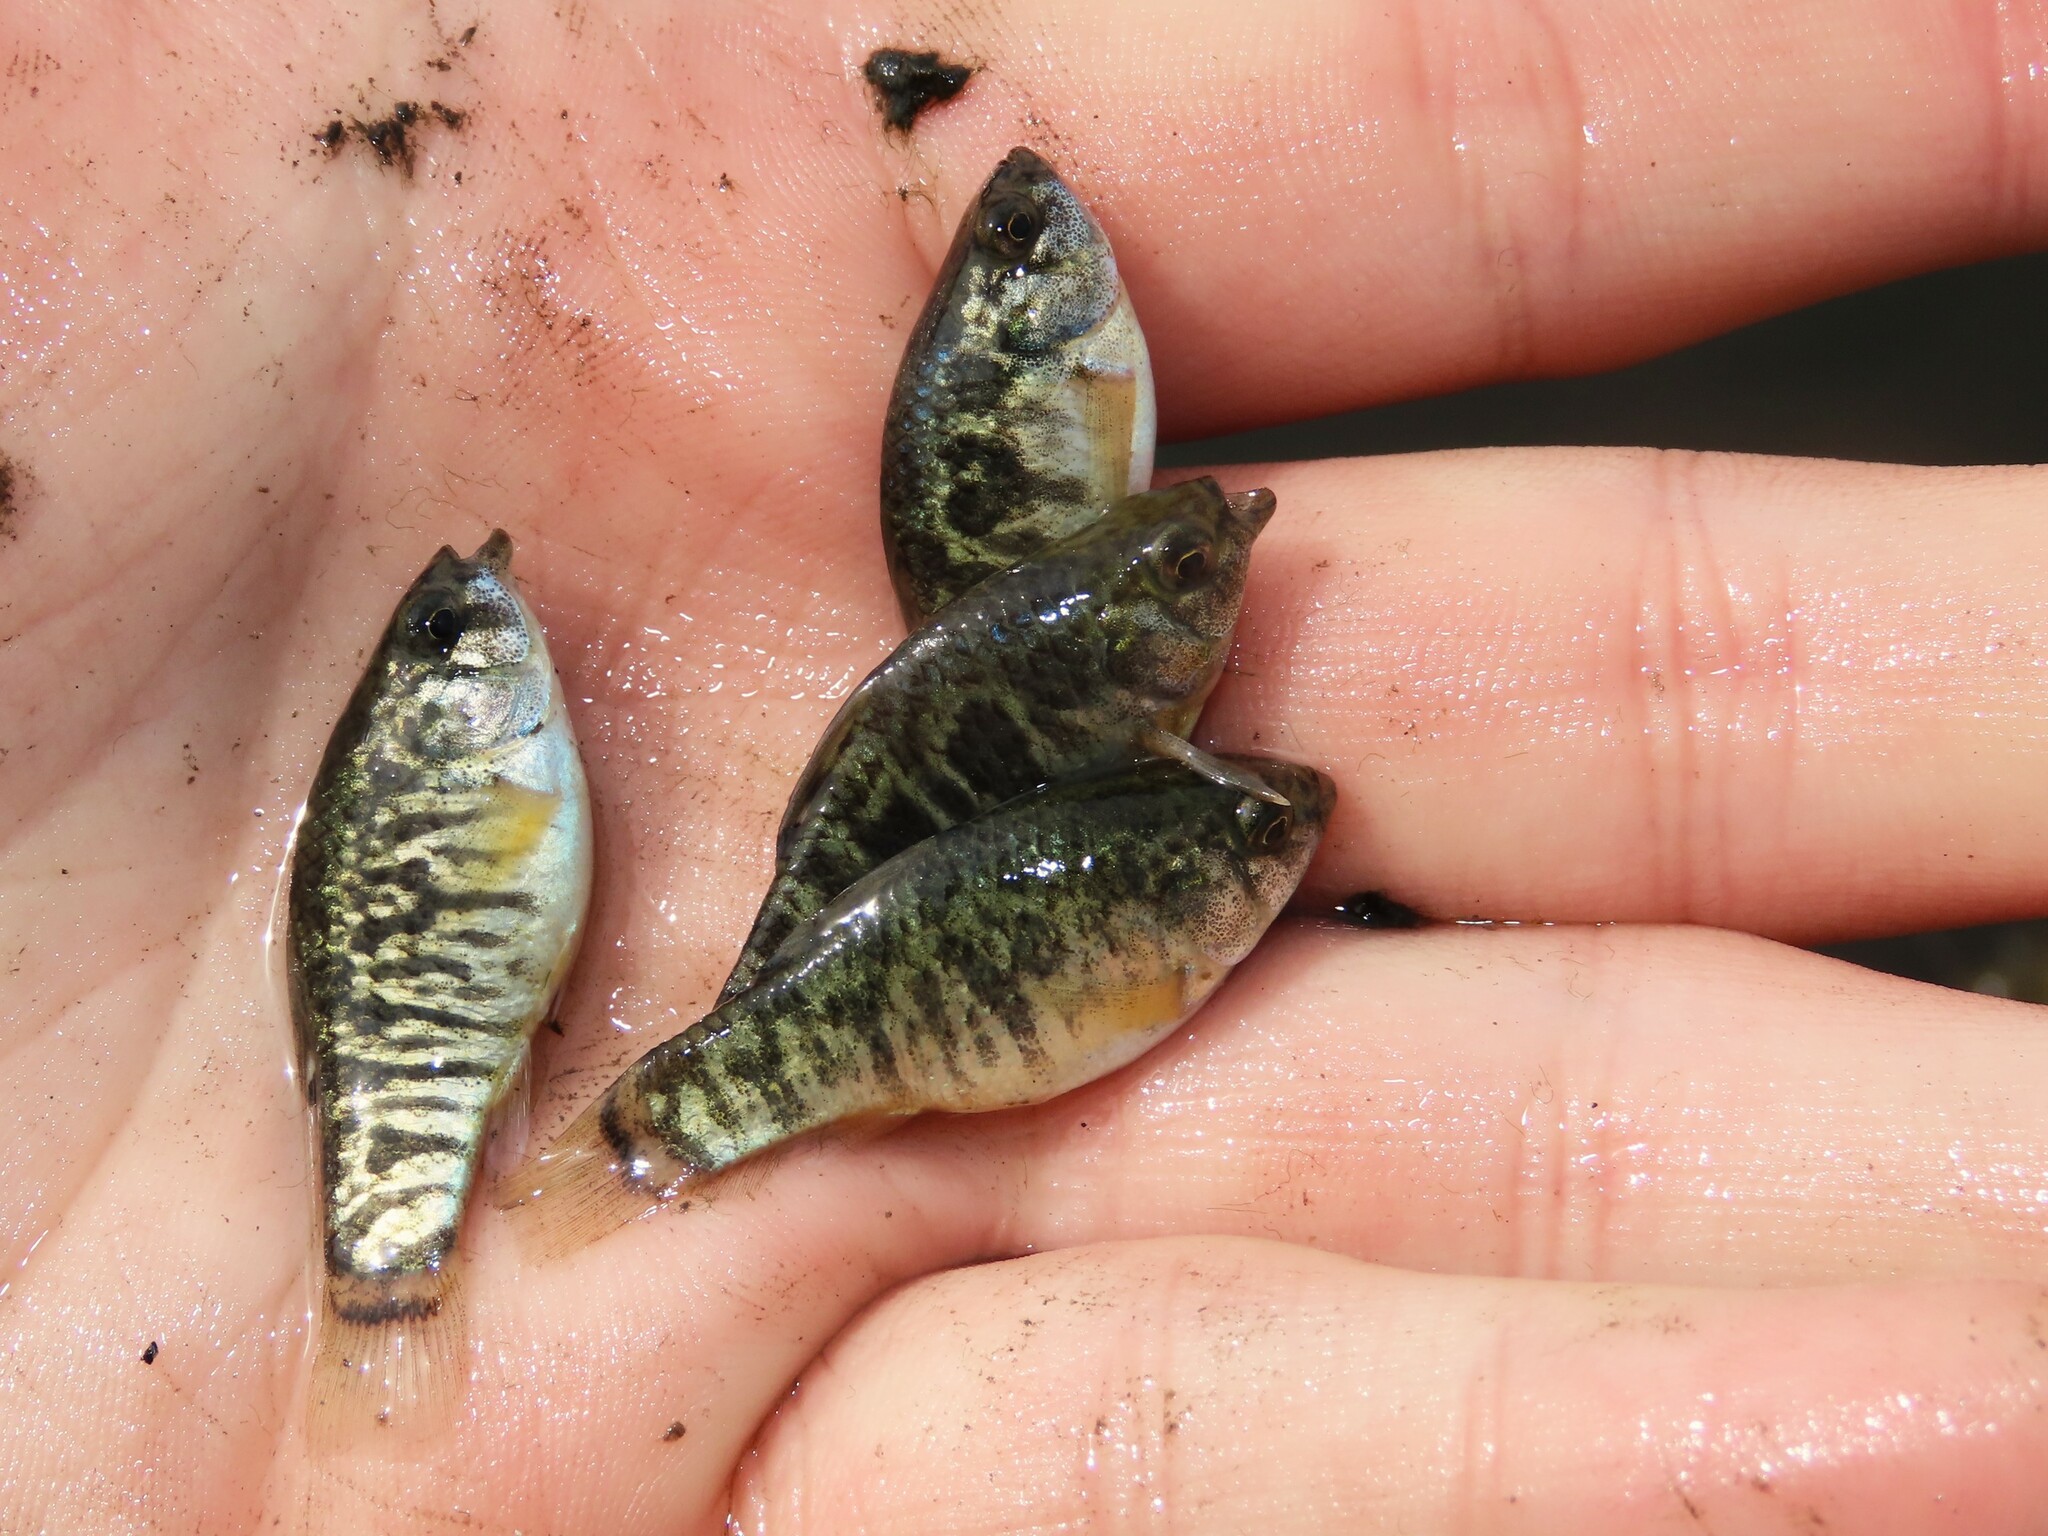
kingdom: Animalia
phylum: Chordata
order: Cyprinodontiformes
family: Cyprinodontidae
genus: Cyprinodon
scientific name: Cyprinodon variegatus
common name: Sheepshead minnow
